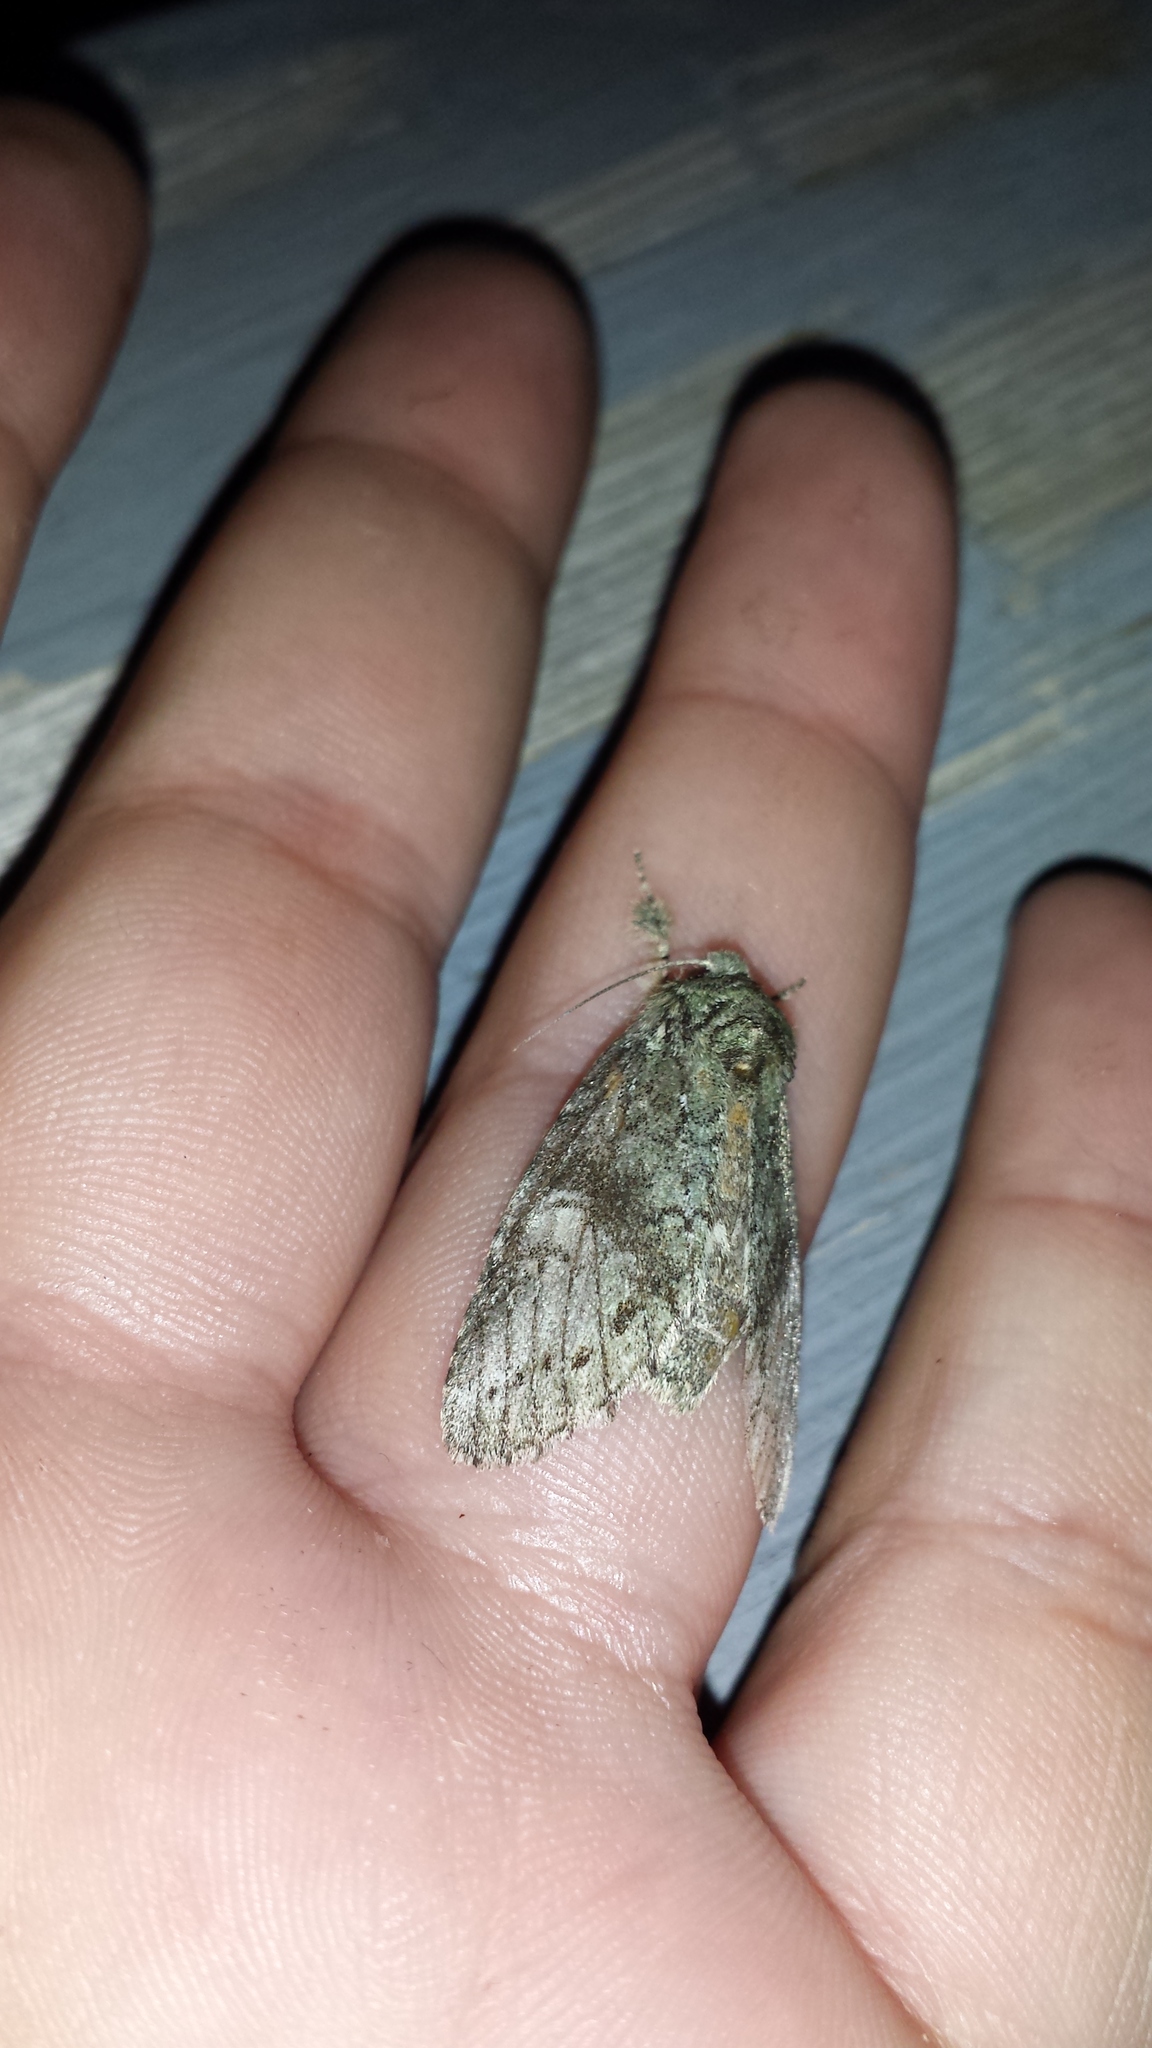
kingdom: Animalia
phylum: Arthropoda
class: Insecta
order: Lepidoptera
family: Notodontidae
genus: Heterocampa
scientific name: Heterocampa
